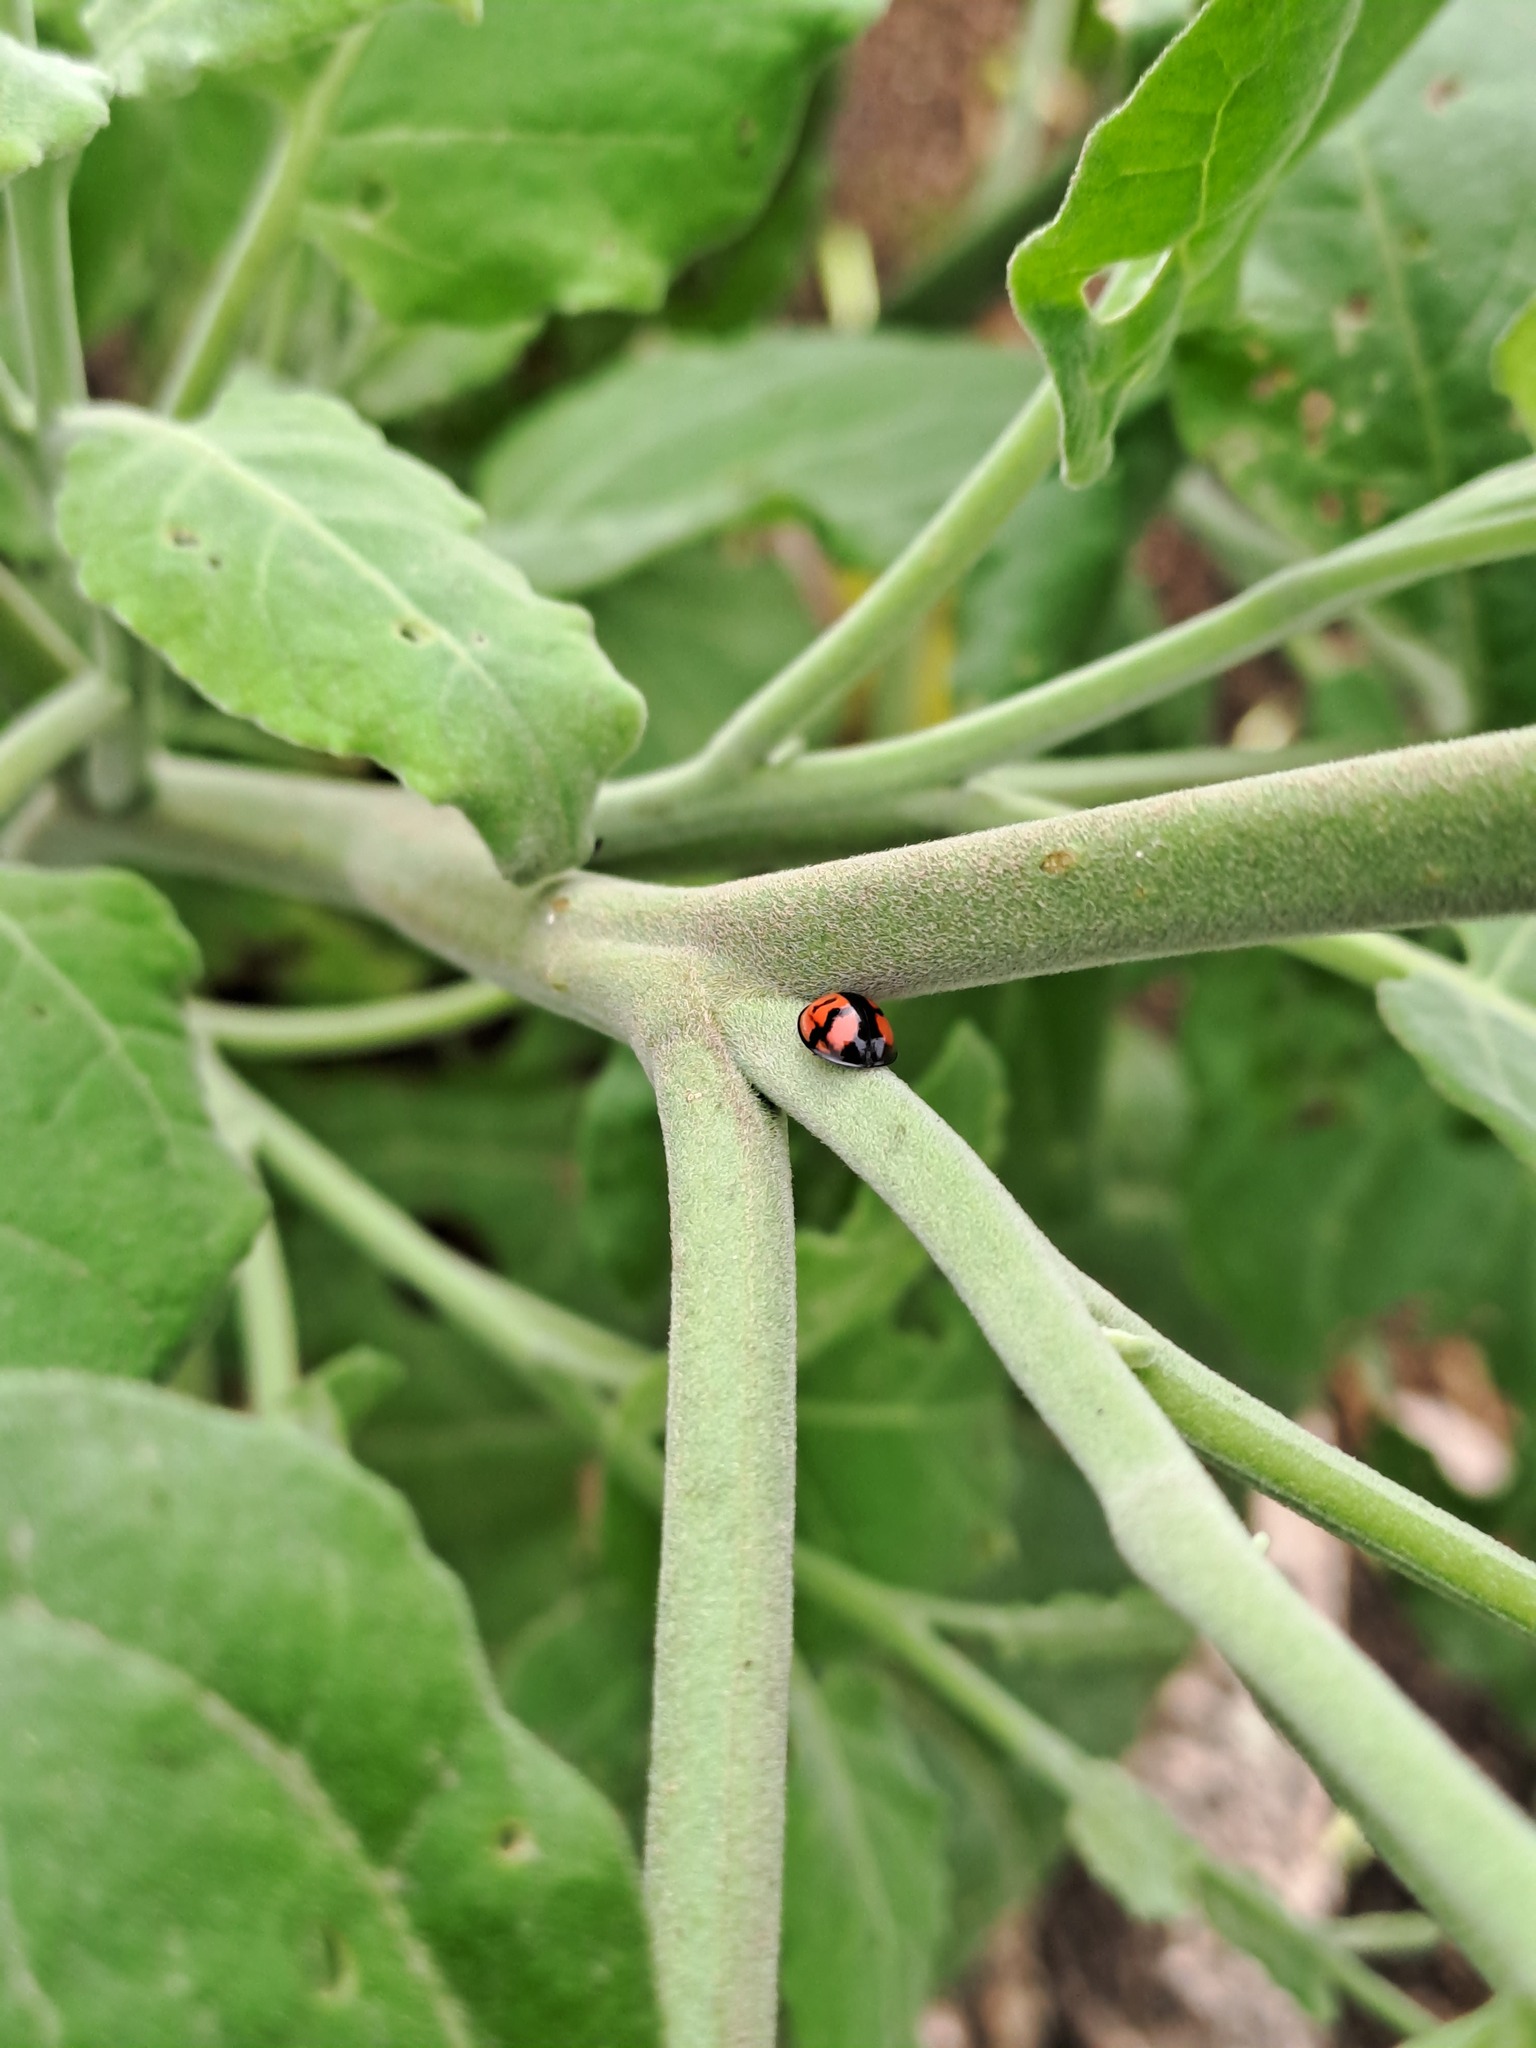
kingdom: Animalia
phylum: Arthropoda
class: Insecta
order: Coleoptera
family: Coccinellidae
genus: Cheilomenes
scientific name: Cheilomenes sexmaculata
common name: Ladybird beetle
